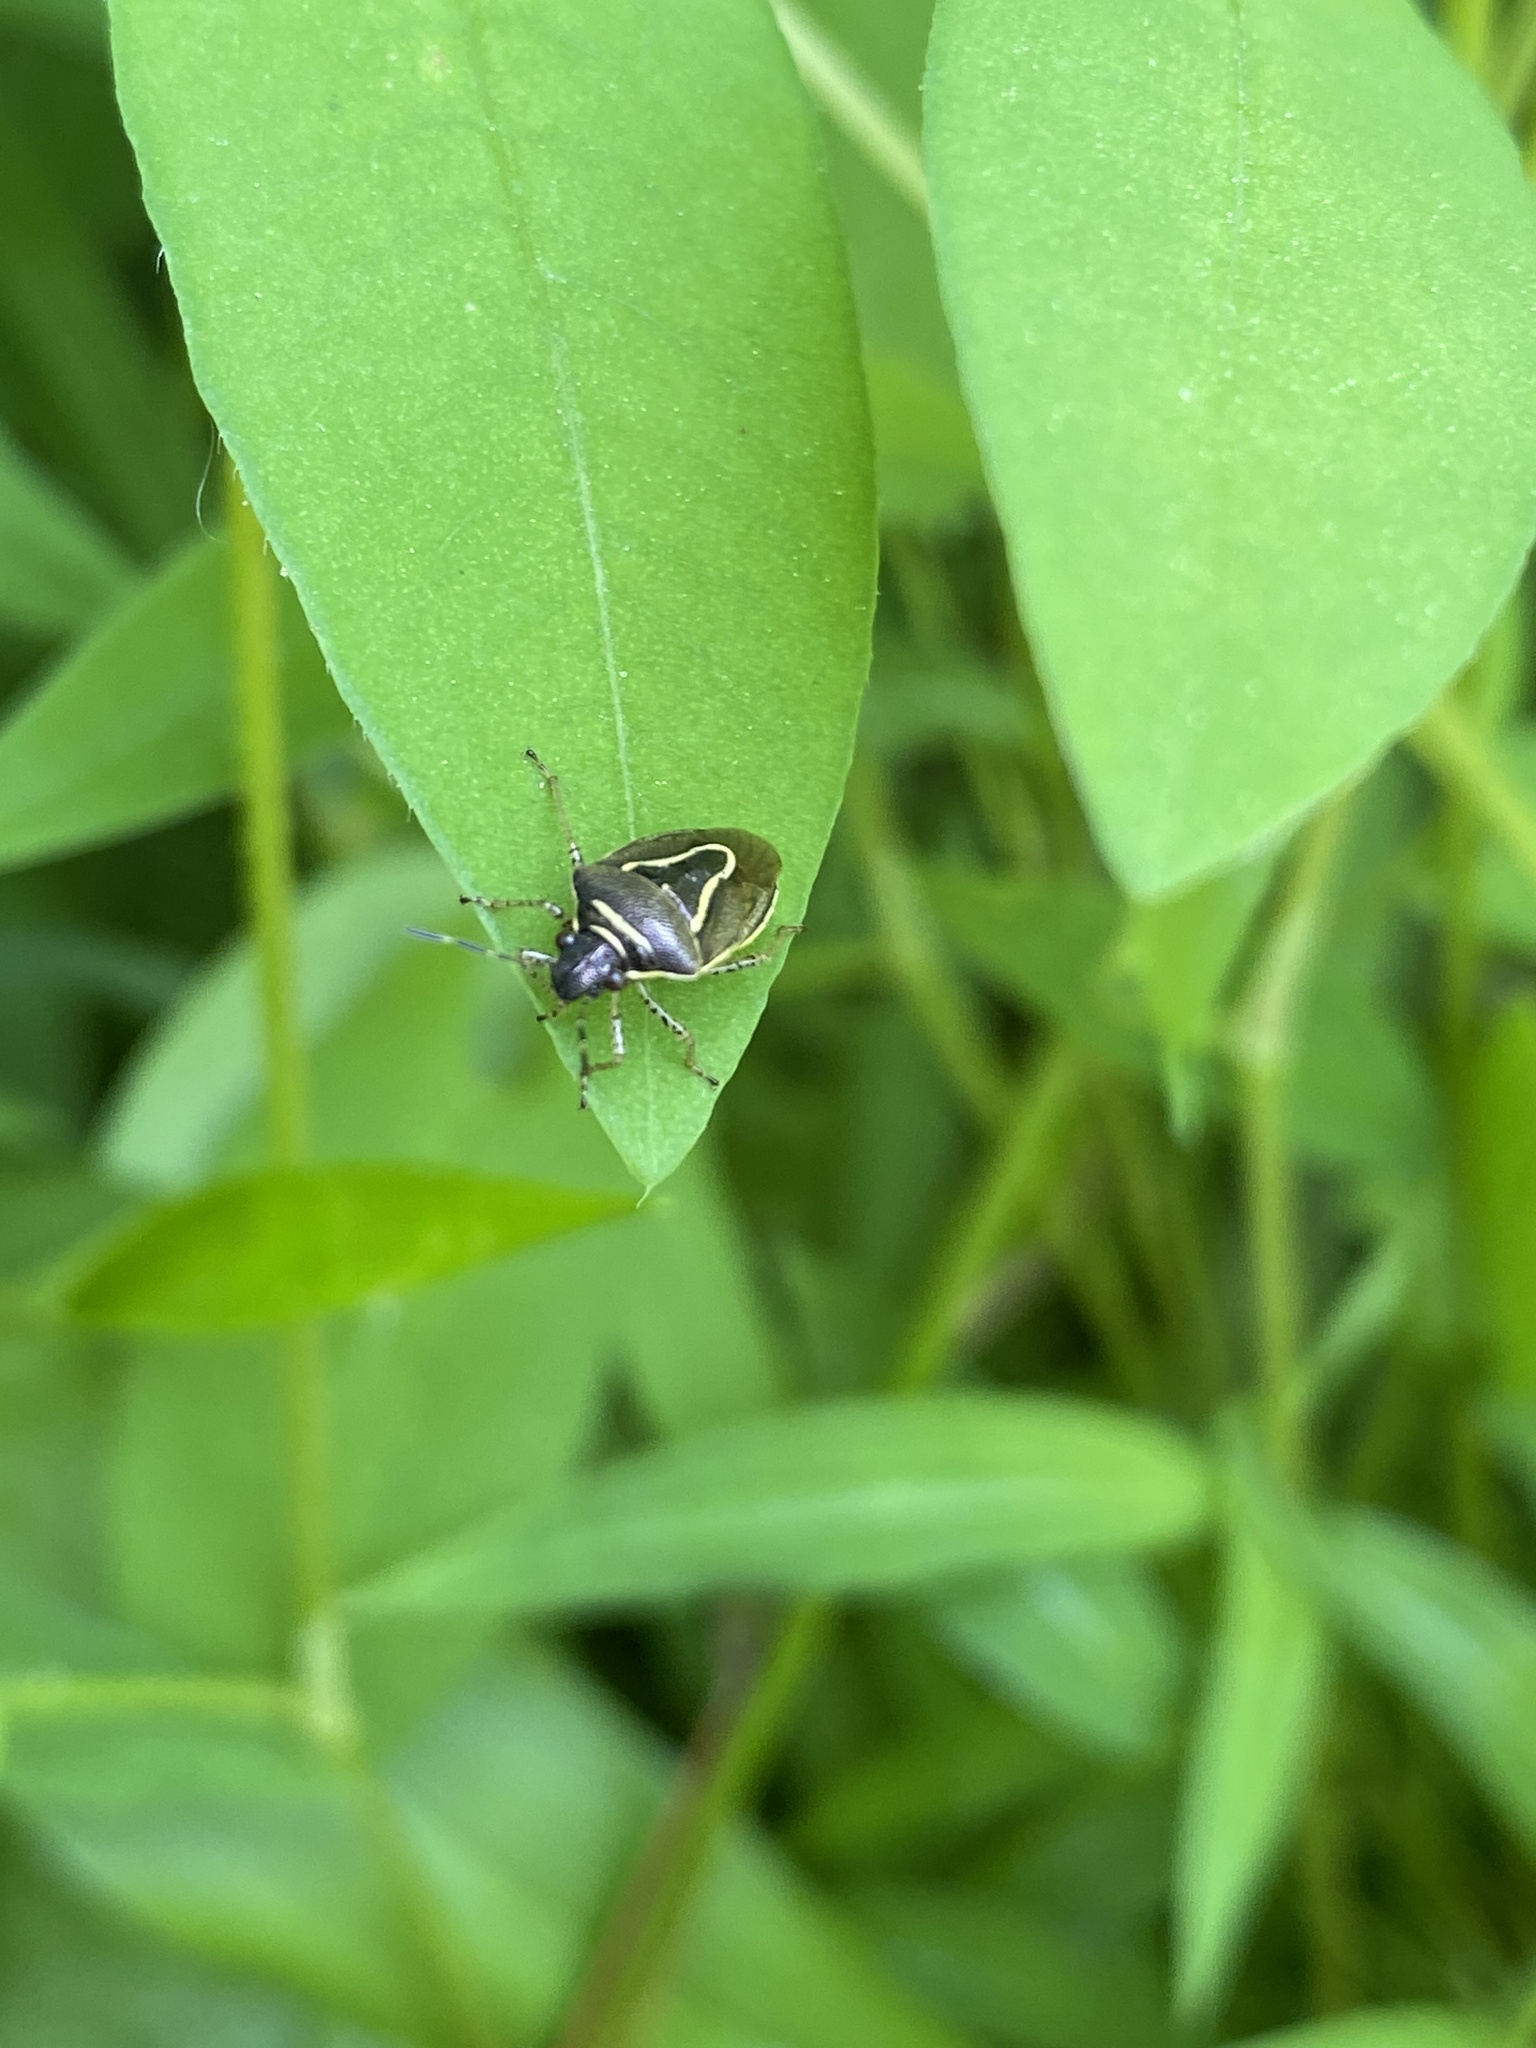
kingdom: Animalia
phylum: Arthropoda
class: Insecta
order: Hemiptera
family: Pentatomidae
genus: Mormidea
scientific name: Mormidea lugens
